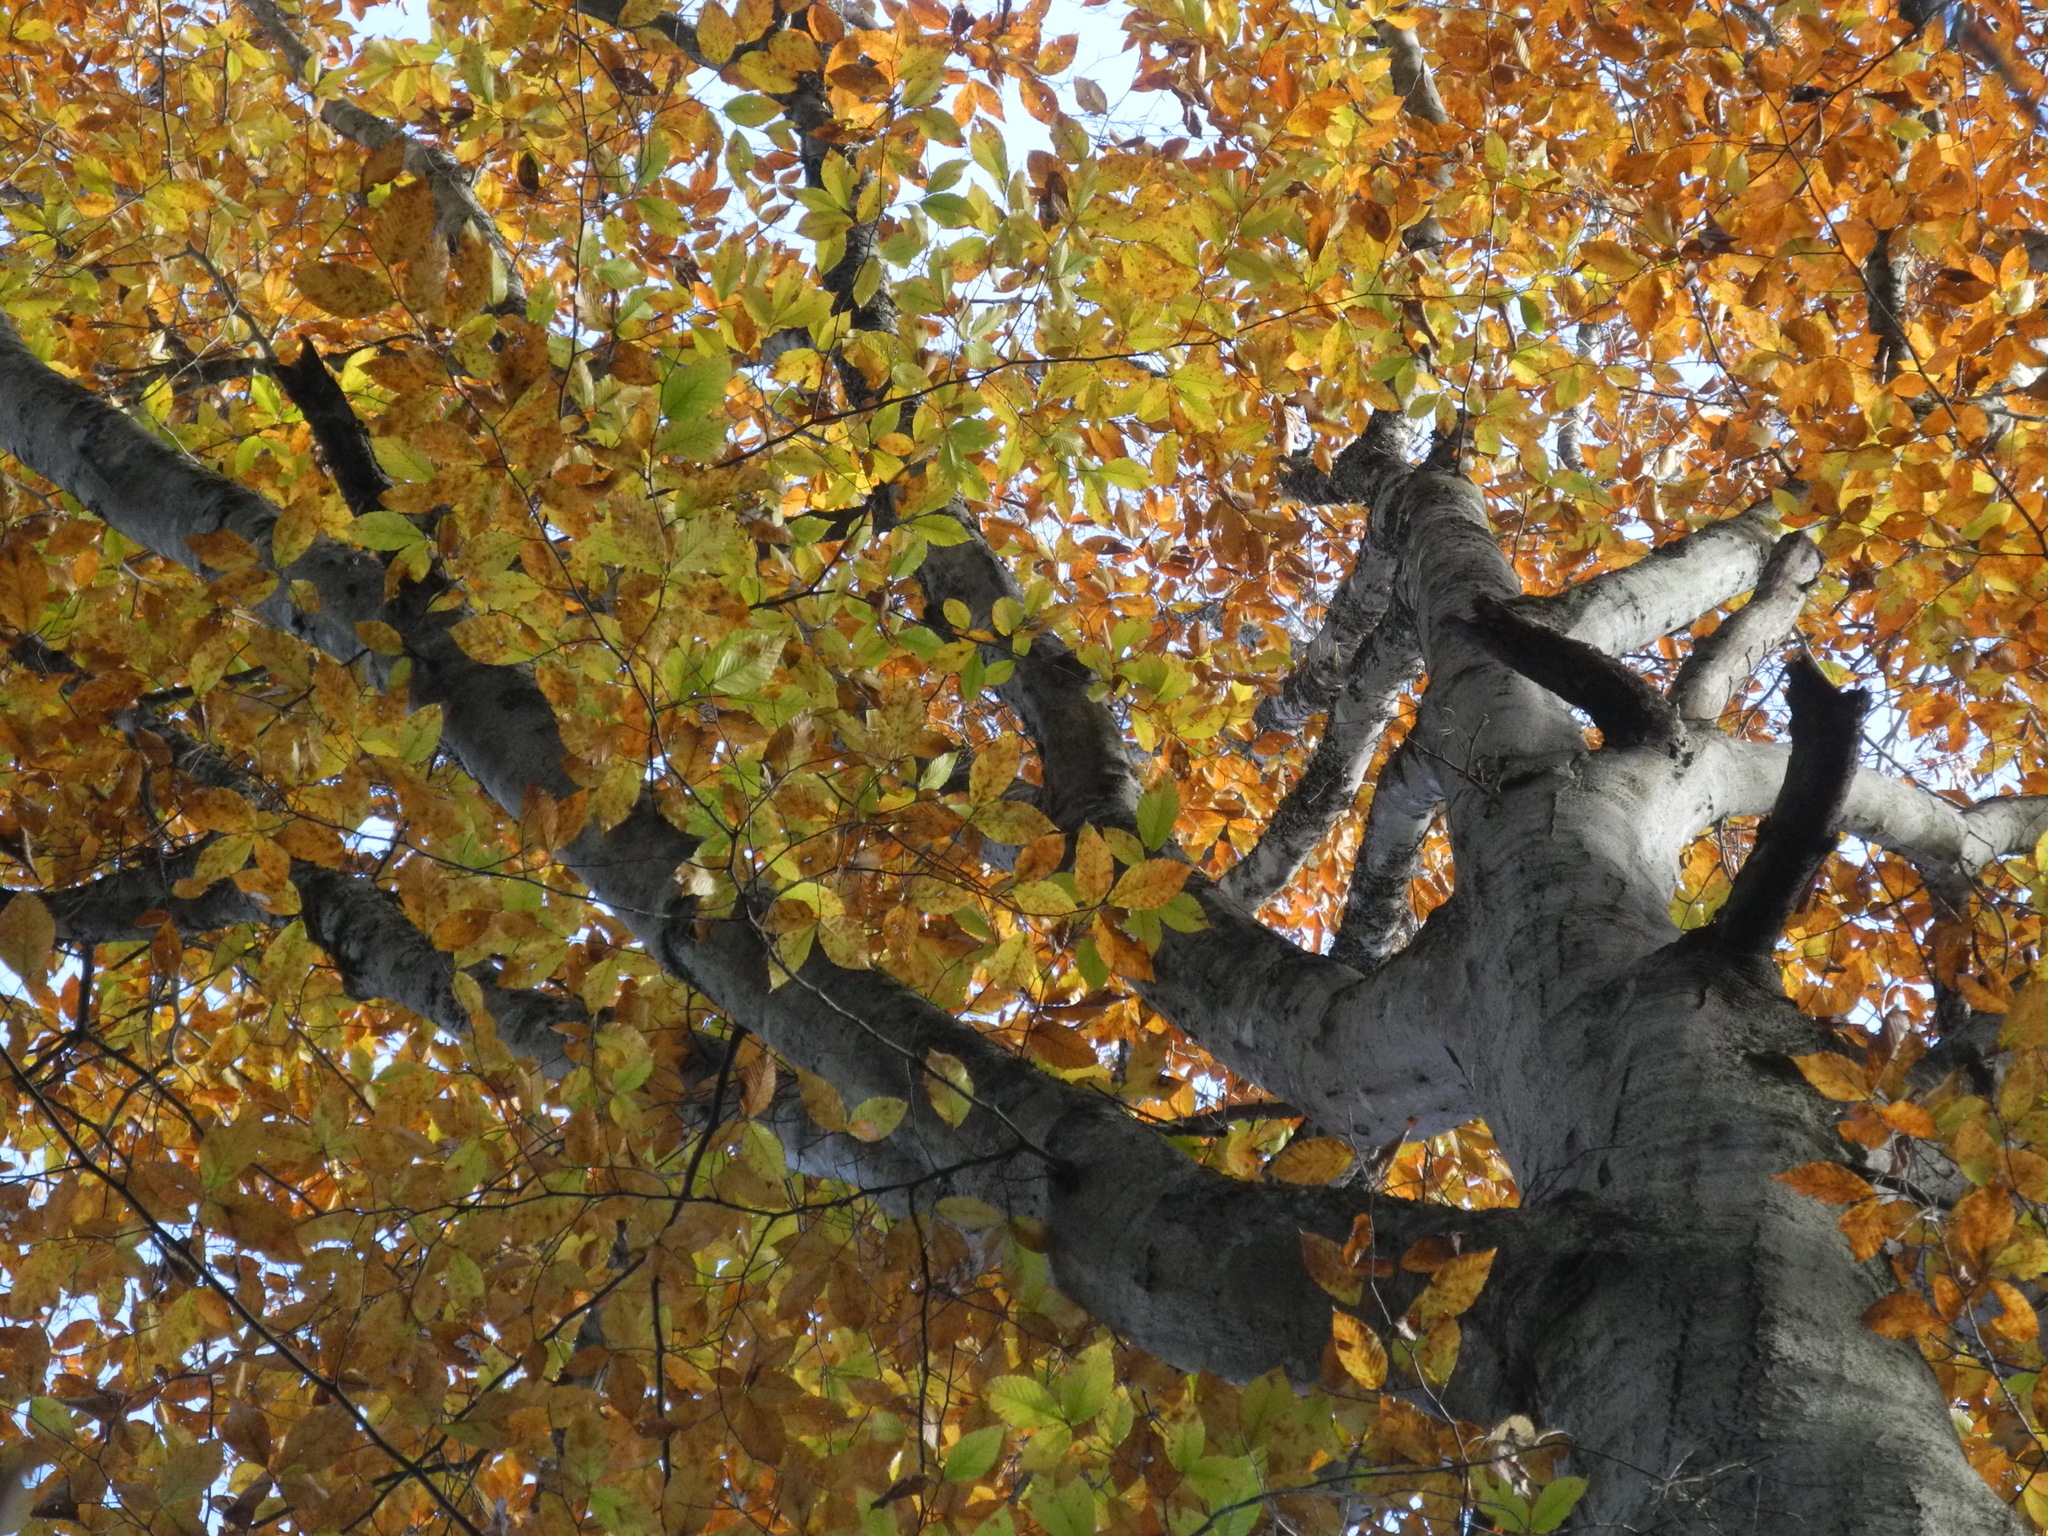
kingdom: Plantae
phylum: Tracheophyta
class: Magnoliopsida
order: Fagales
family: Fagaceae
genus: Fagus
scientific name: Fagus grandifolia
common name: American beech
